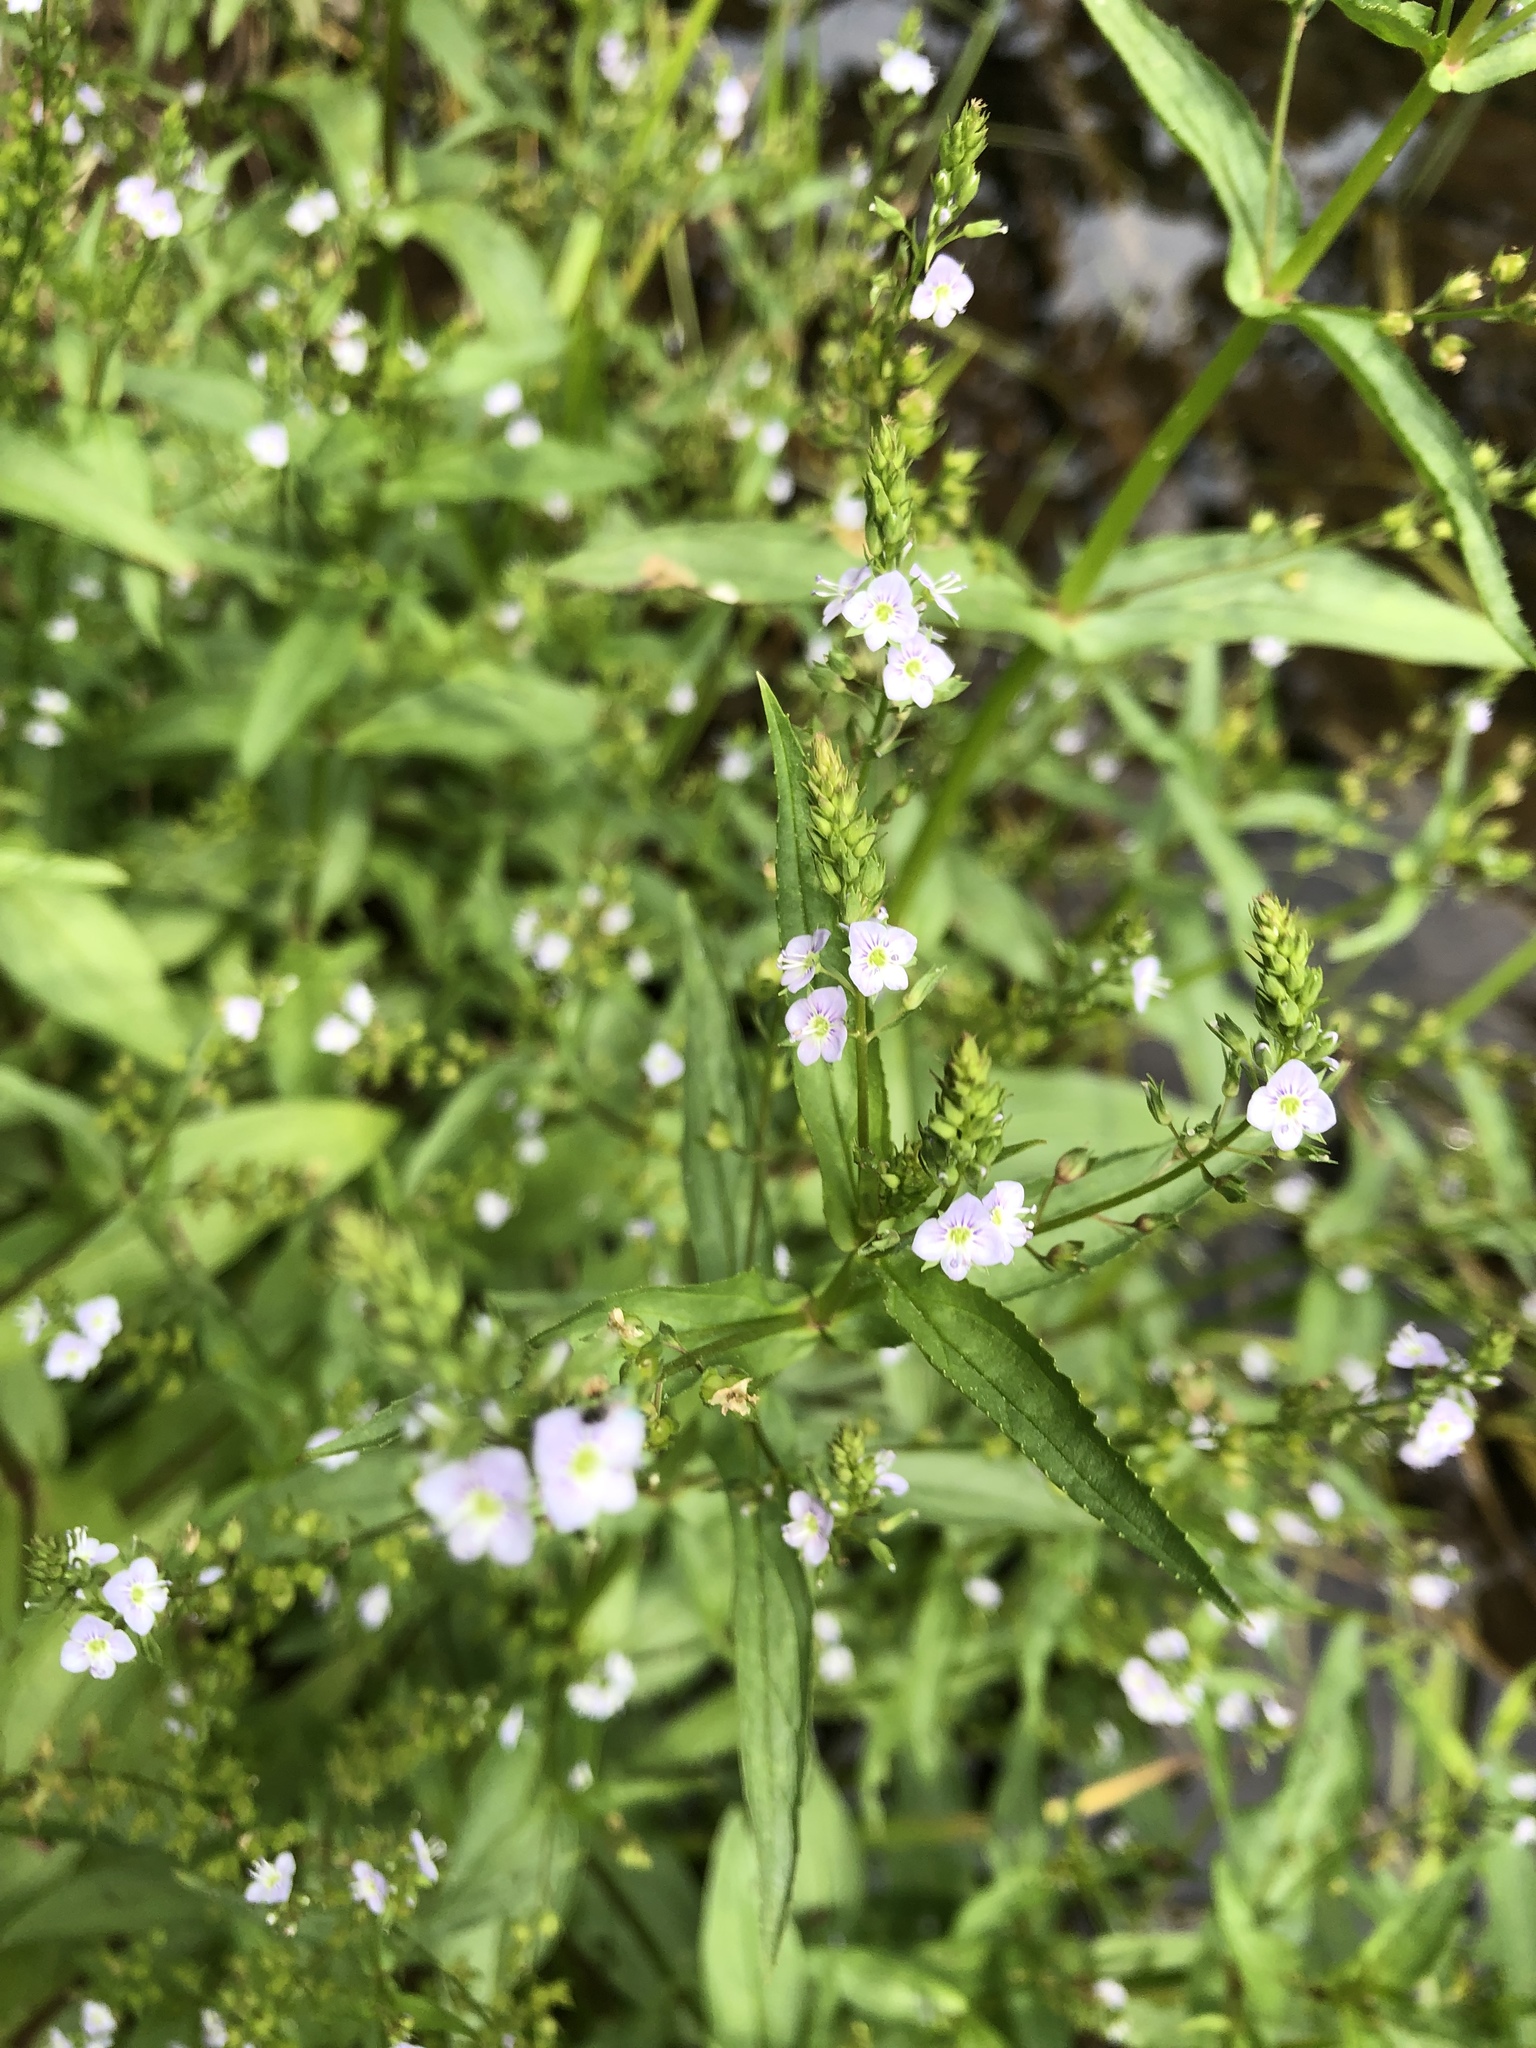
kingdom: Plantae
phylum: Tracheophyta
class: Magnoliopsida
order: Lamiales
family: Plantaginaceae
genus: Veronica
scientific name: Veronica catenata
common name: Pink water-speedwell
